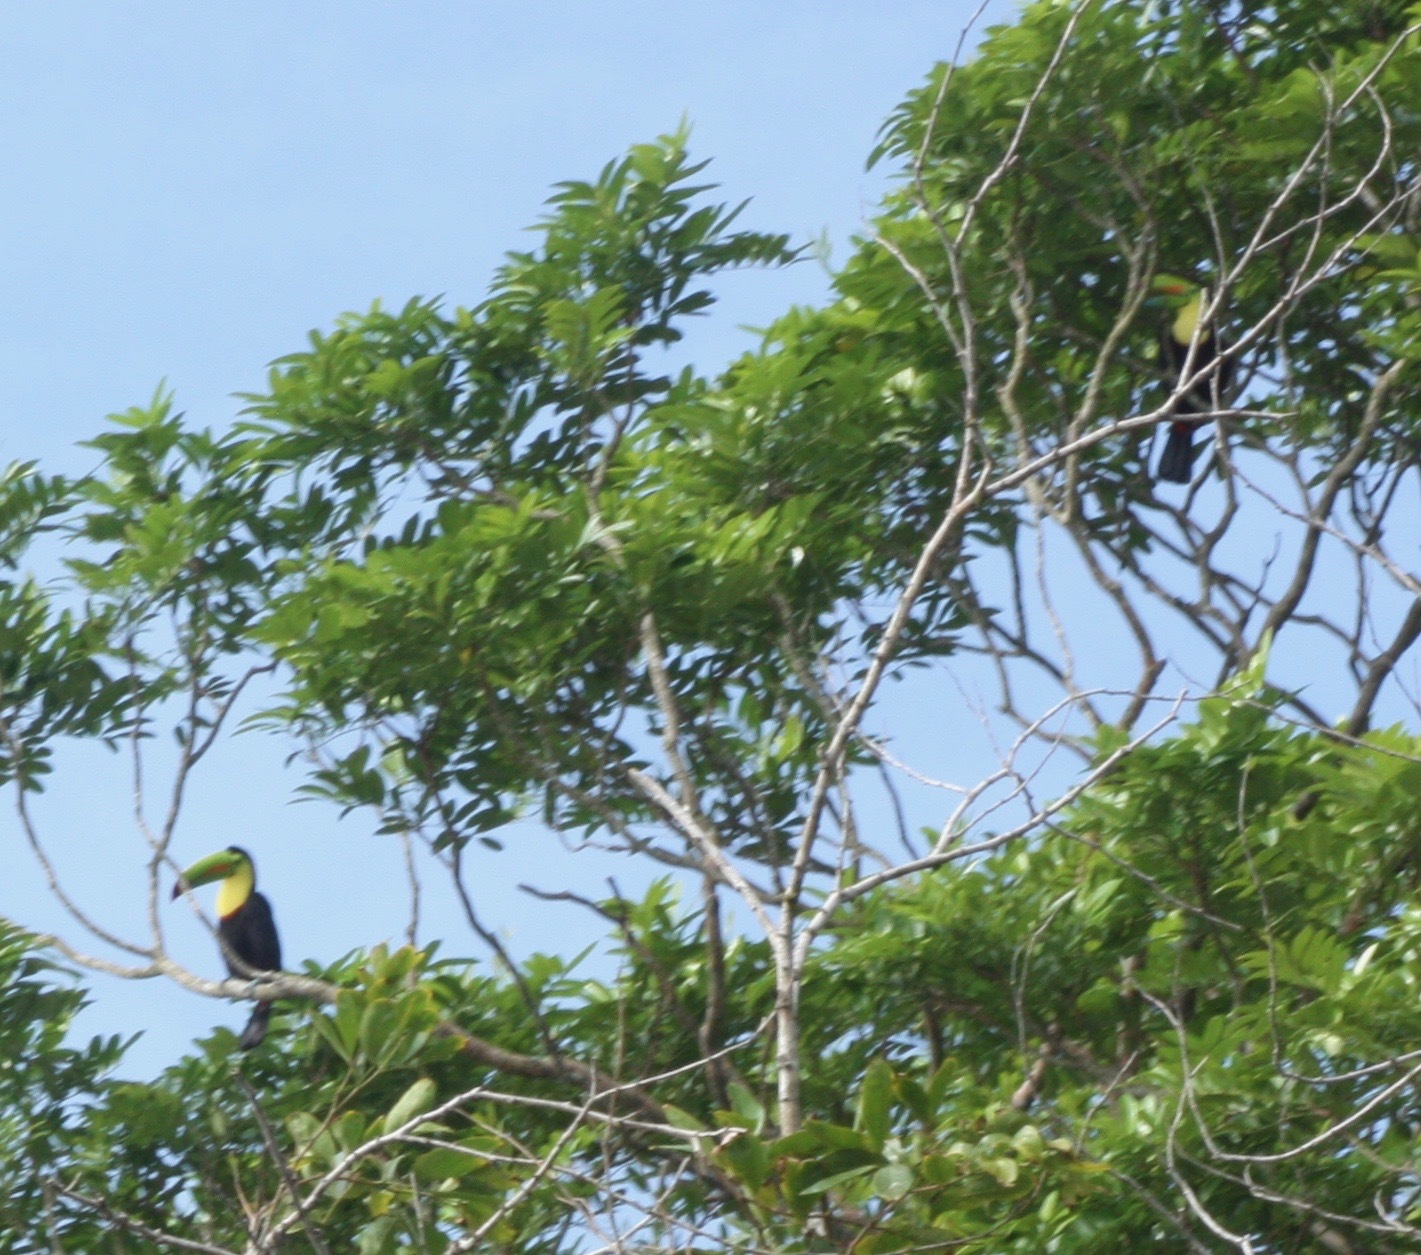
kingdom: Animalia
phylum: Chordata
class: Aves
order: Piciformes
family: Ramphastidae
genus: Ramphastos
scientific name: Ramphastos sulfuratus
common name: Keel-billed toucan
